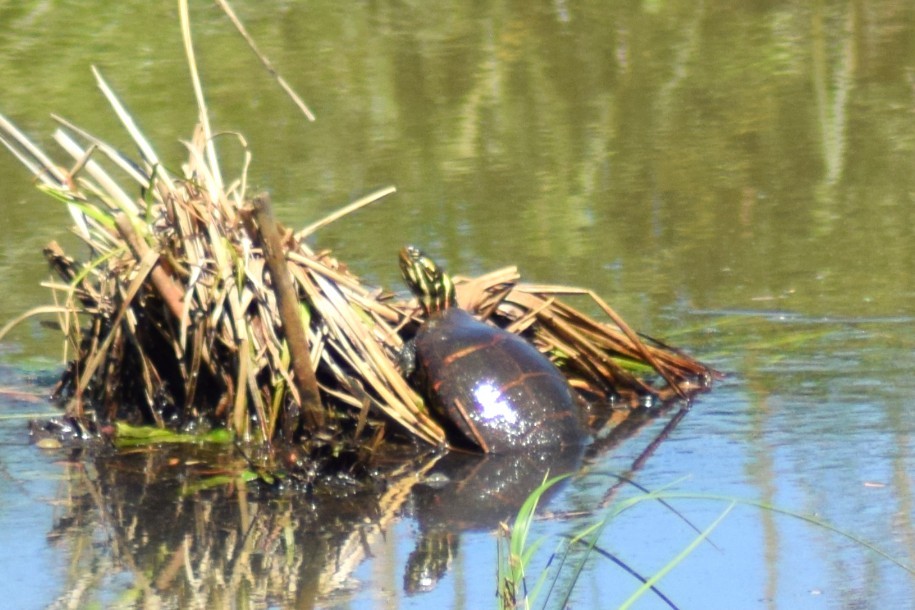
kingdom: Animalia
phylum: Chordata
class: Testudines
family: Emydidae
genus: Chrysemys
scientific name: Chrysemys picta
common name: Painted turtle
